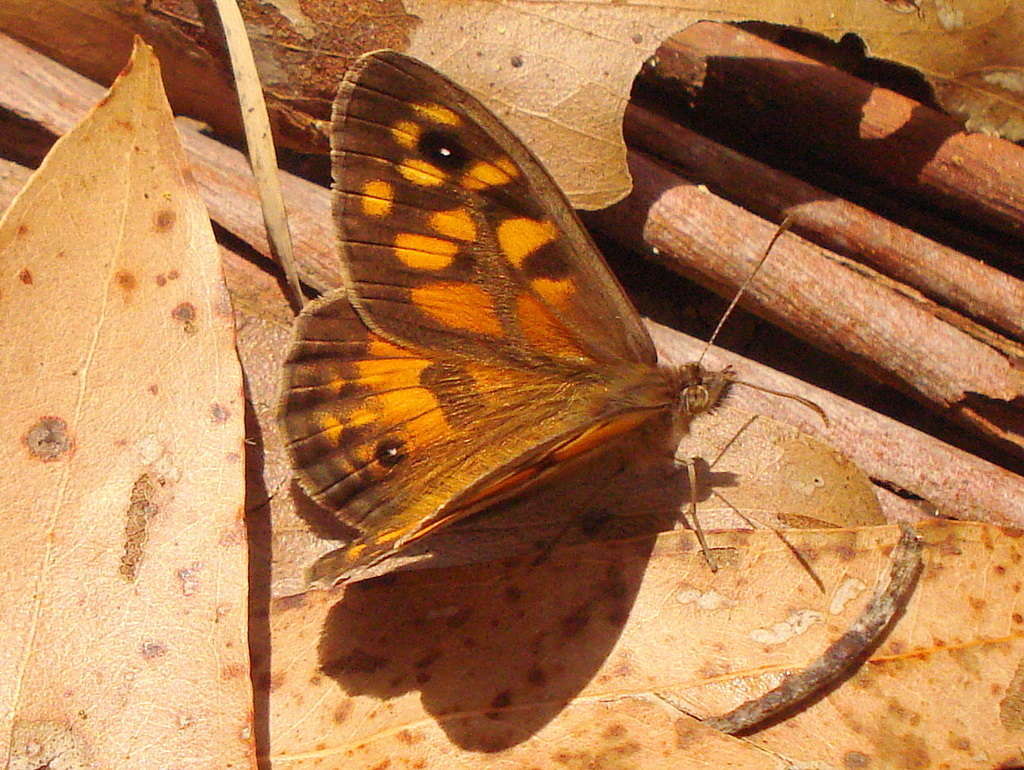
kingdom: Animalia
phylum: Arthropoda
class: Insecta
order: Lepidoptera
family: Nymphalidae
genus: Geitoneura
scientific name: Geitoneura klugii
